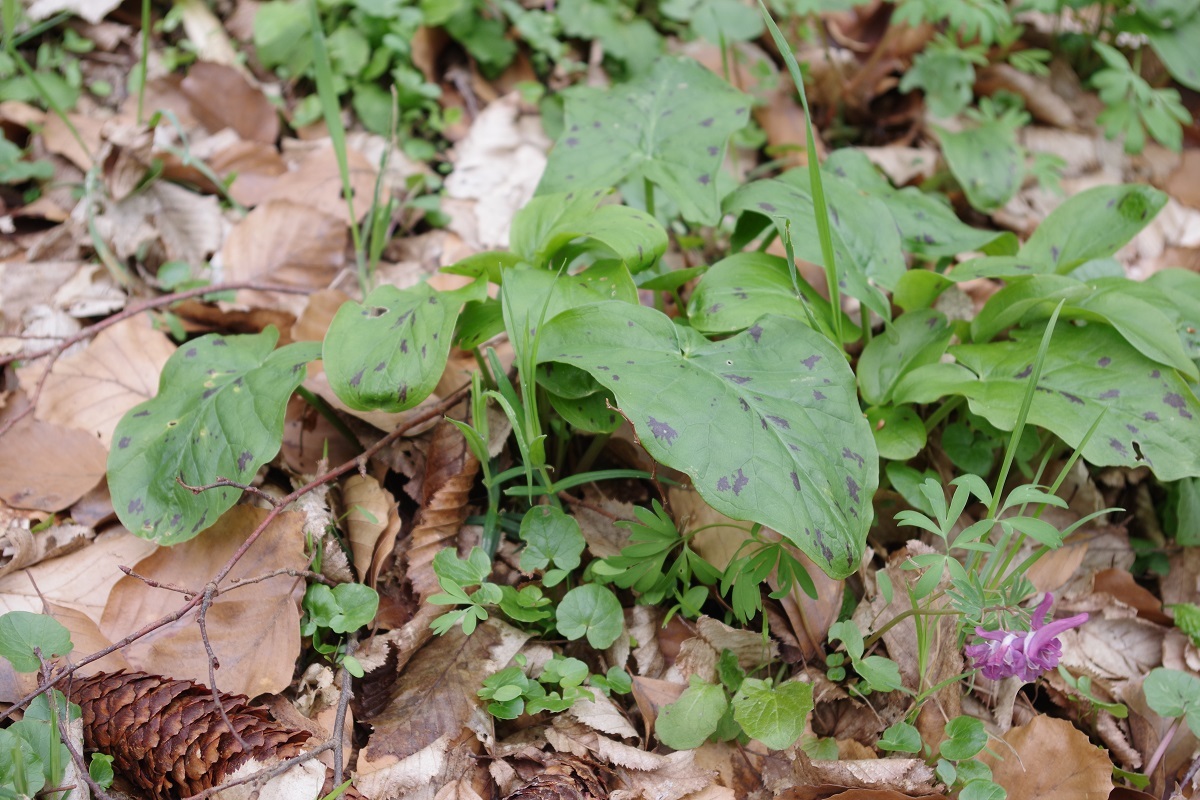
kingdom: Plantae
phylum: Tracheophyta
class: Liliopsida
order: Alismatales
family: Araceae
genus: Arum
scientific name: Arum maculatum
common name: Lords-and-ladies
